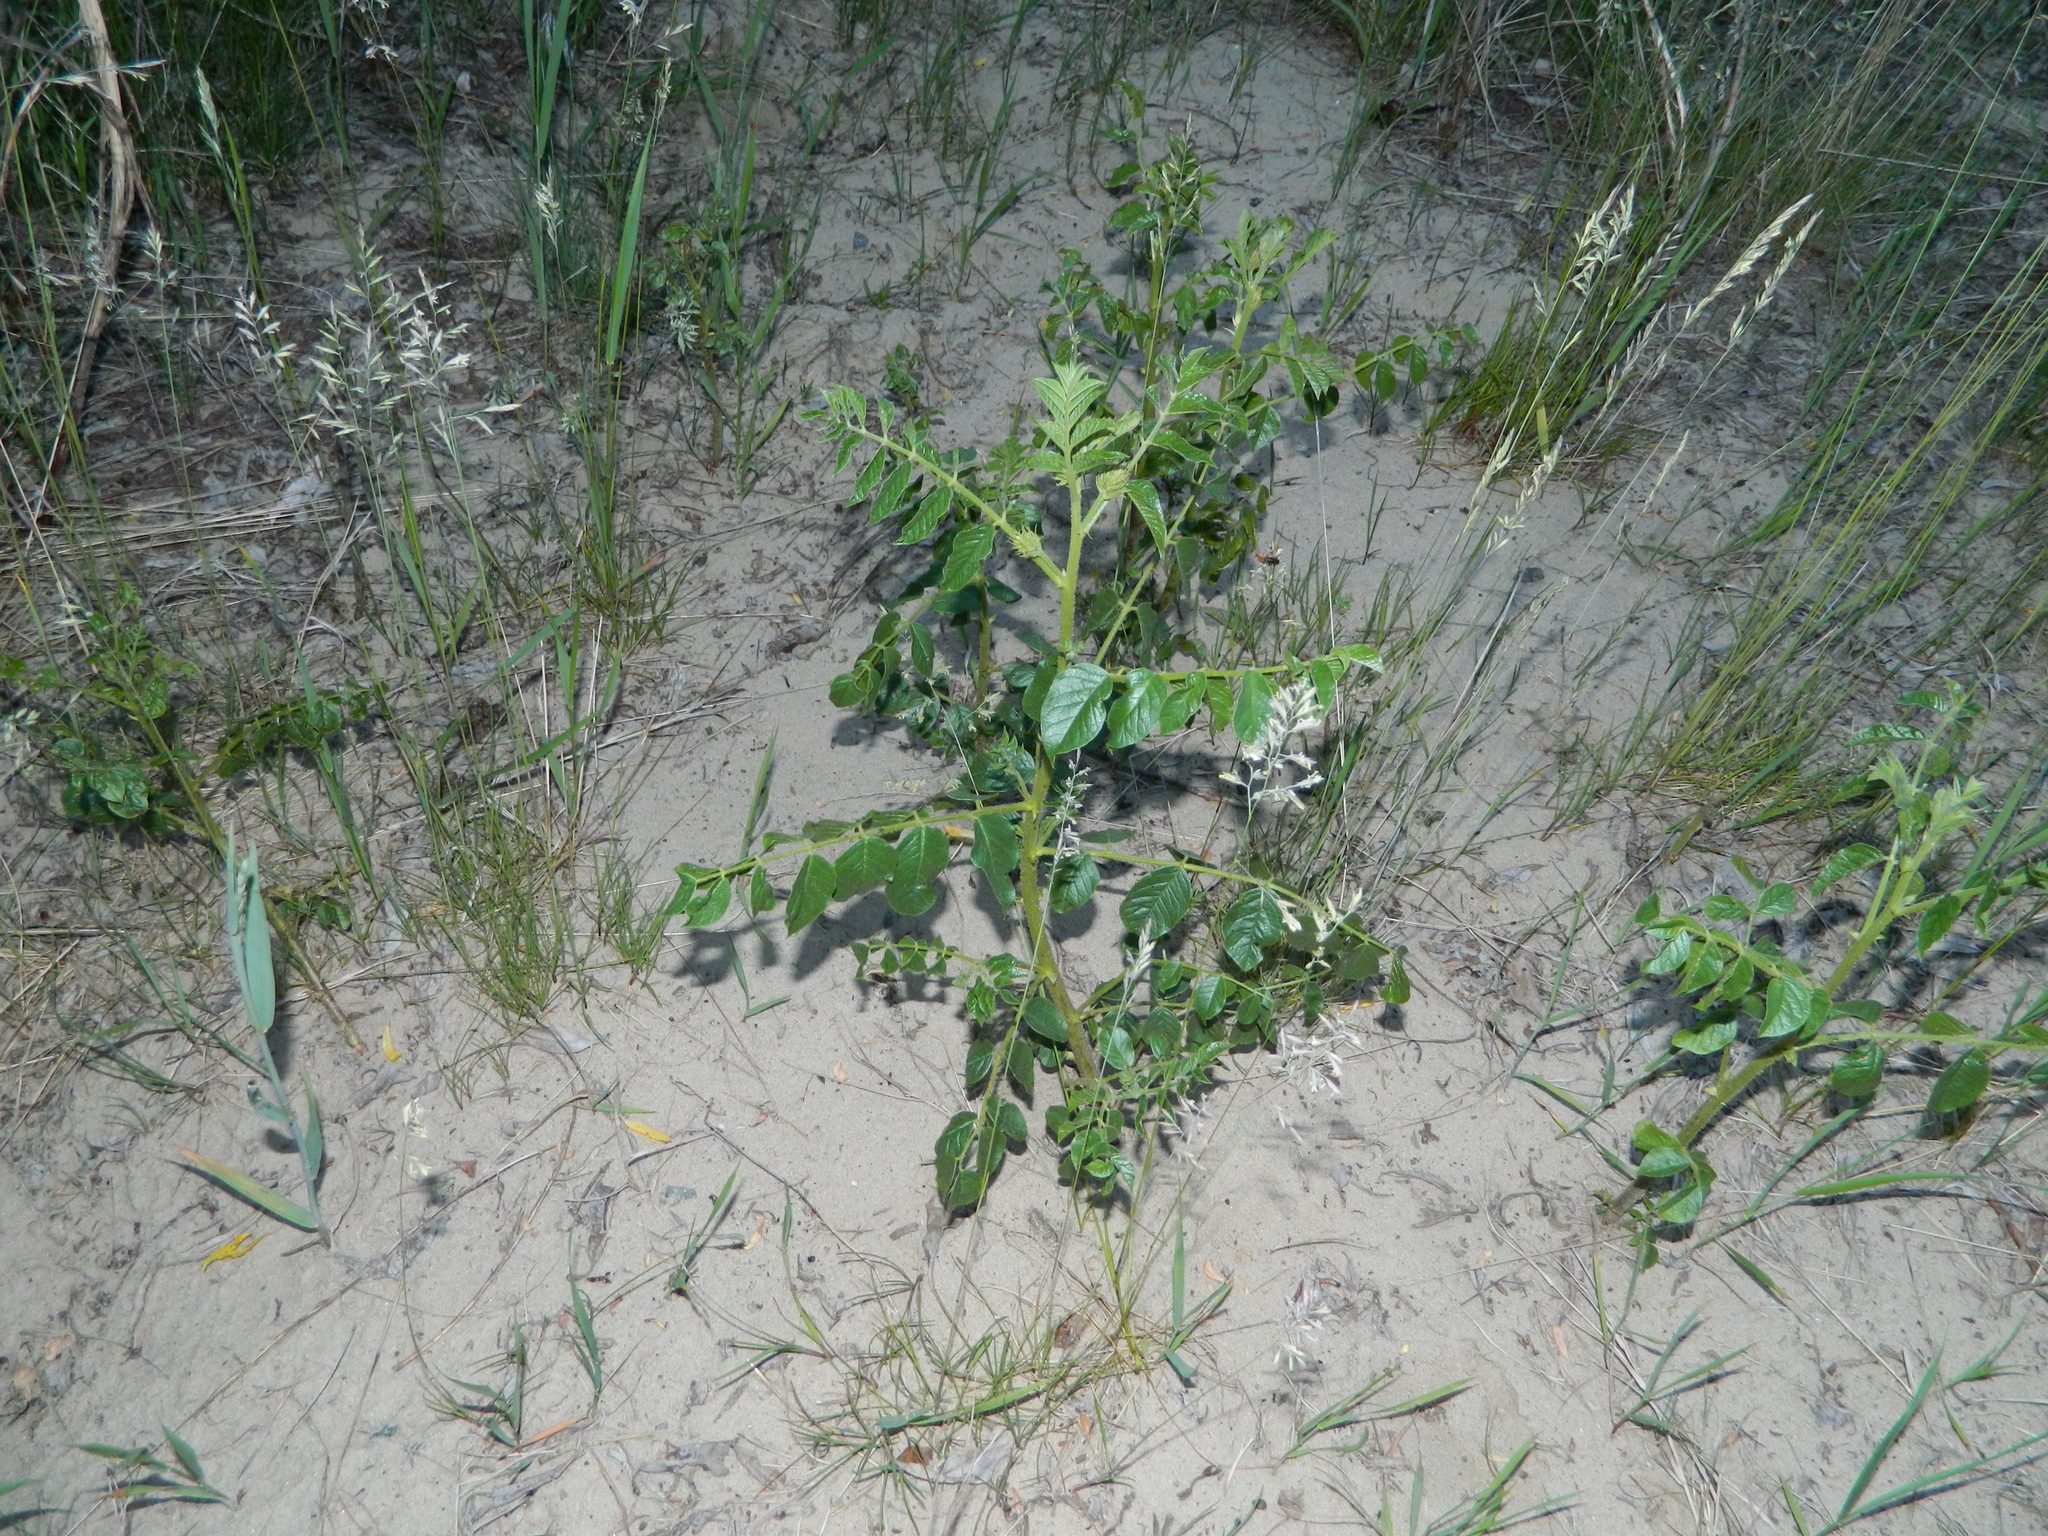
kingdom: Plantae
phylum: Tracheophyta
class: Magnoliopsida
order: Fabales
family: Fabaceae
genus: Glycyrrhiza
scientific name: Glycyrrhiza uralensis
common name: Chinese licorice
